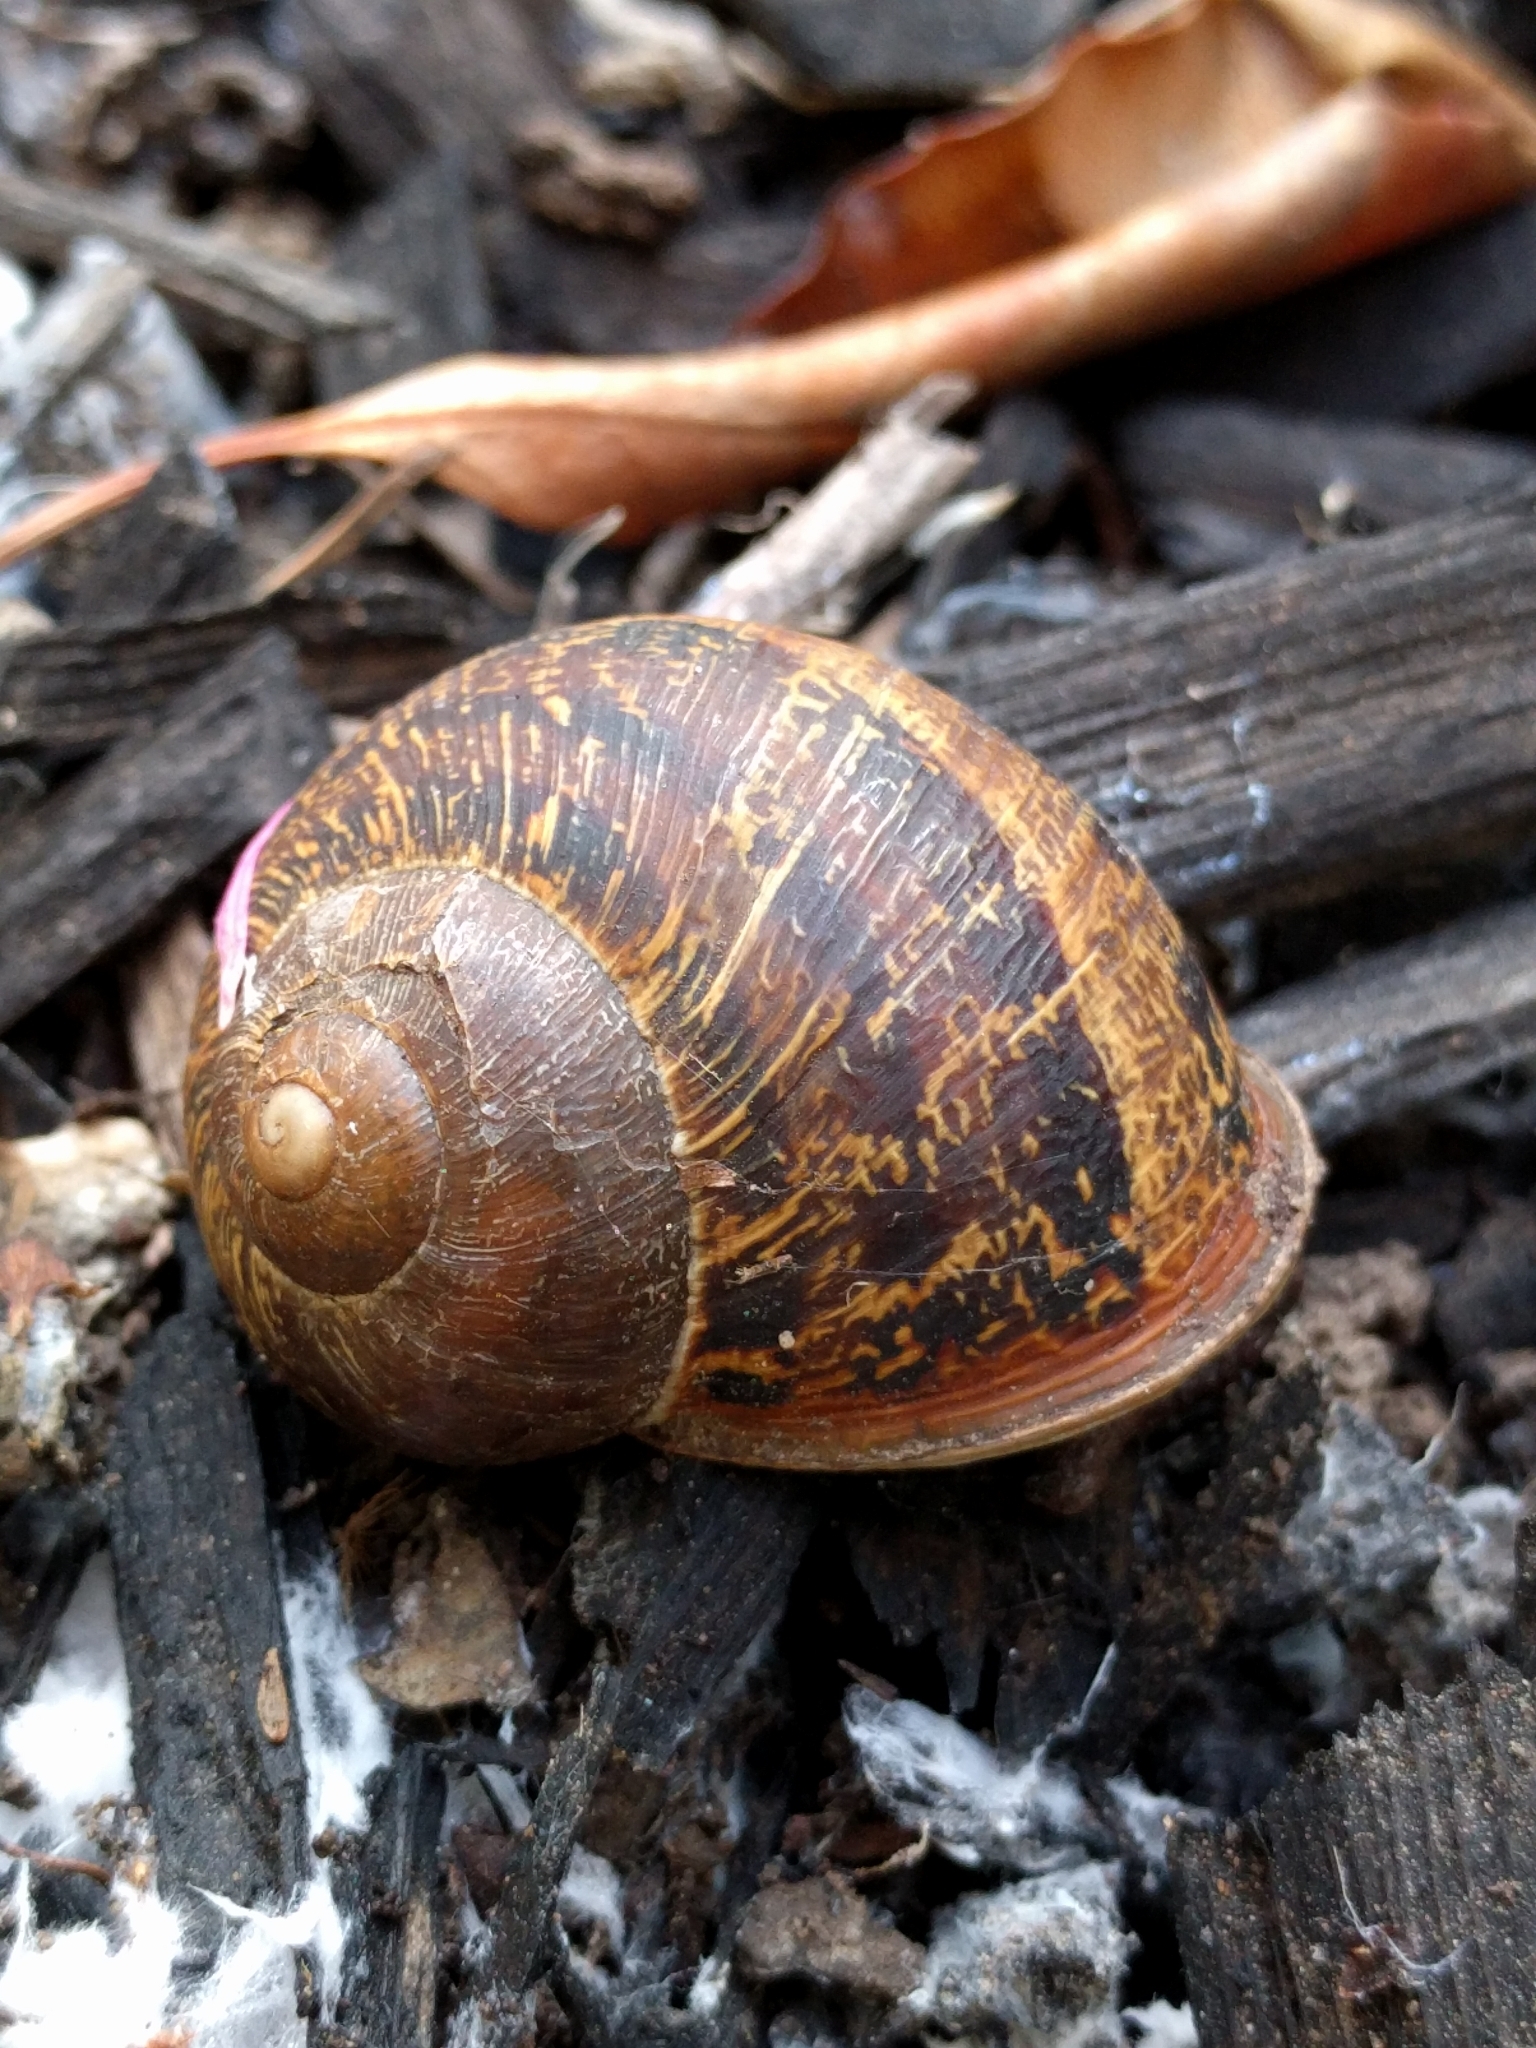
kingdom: Animalia
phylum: Mollusca
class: Gastropoda
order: Stylommatophora
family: Helicidae
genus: Cornu
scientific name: Cornu aspersum
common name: Brown garden snail
